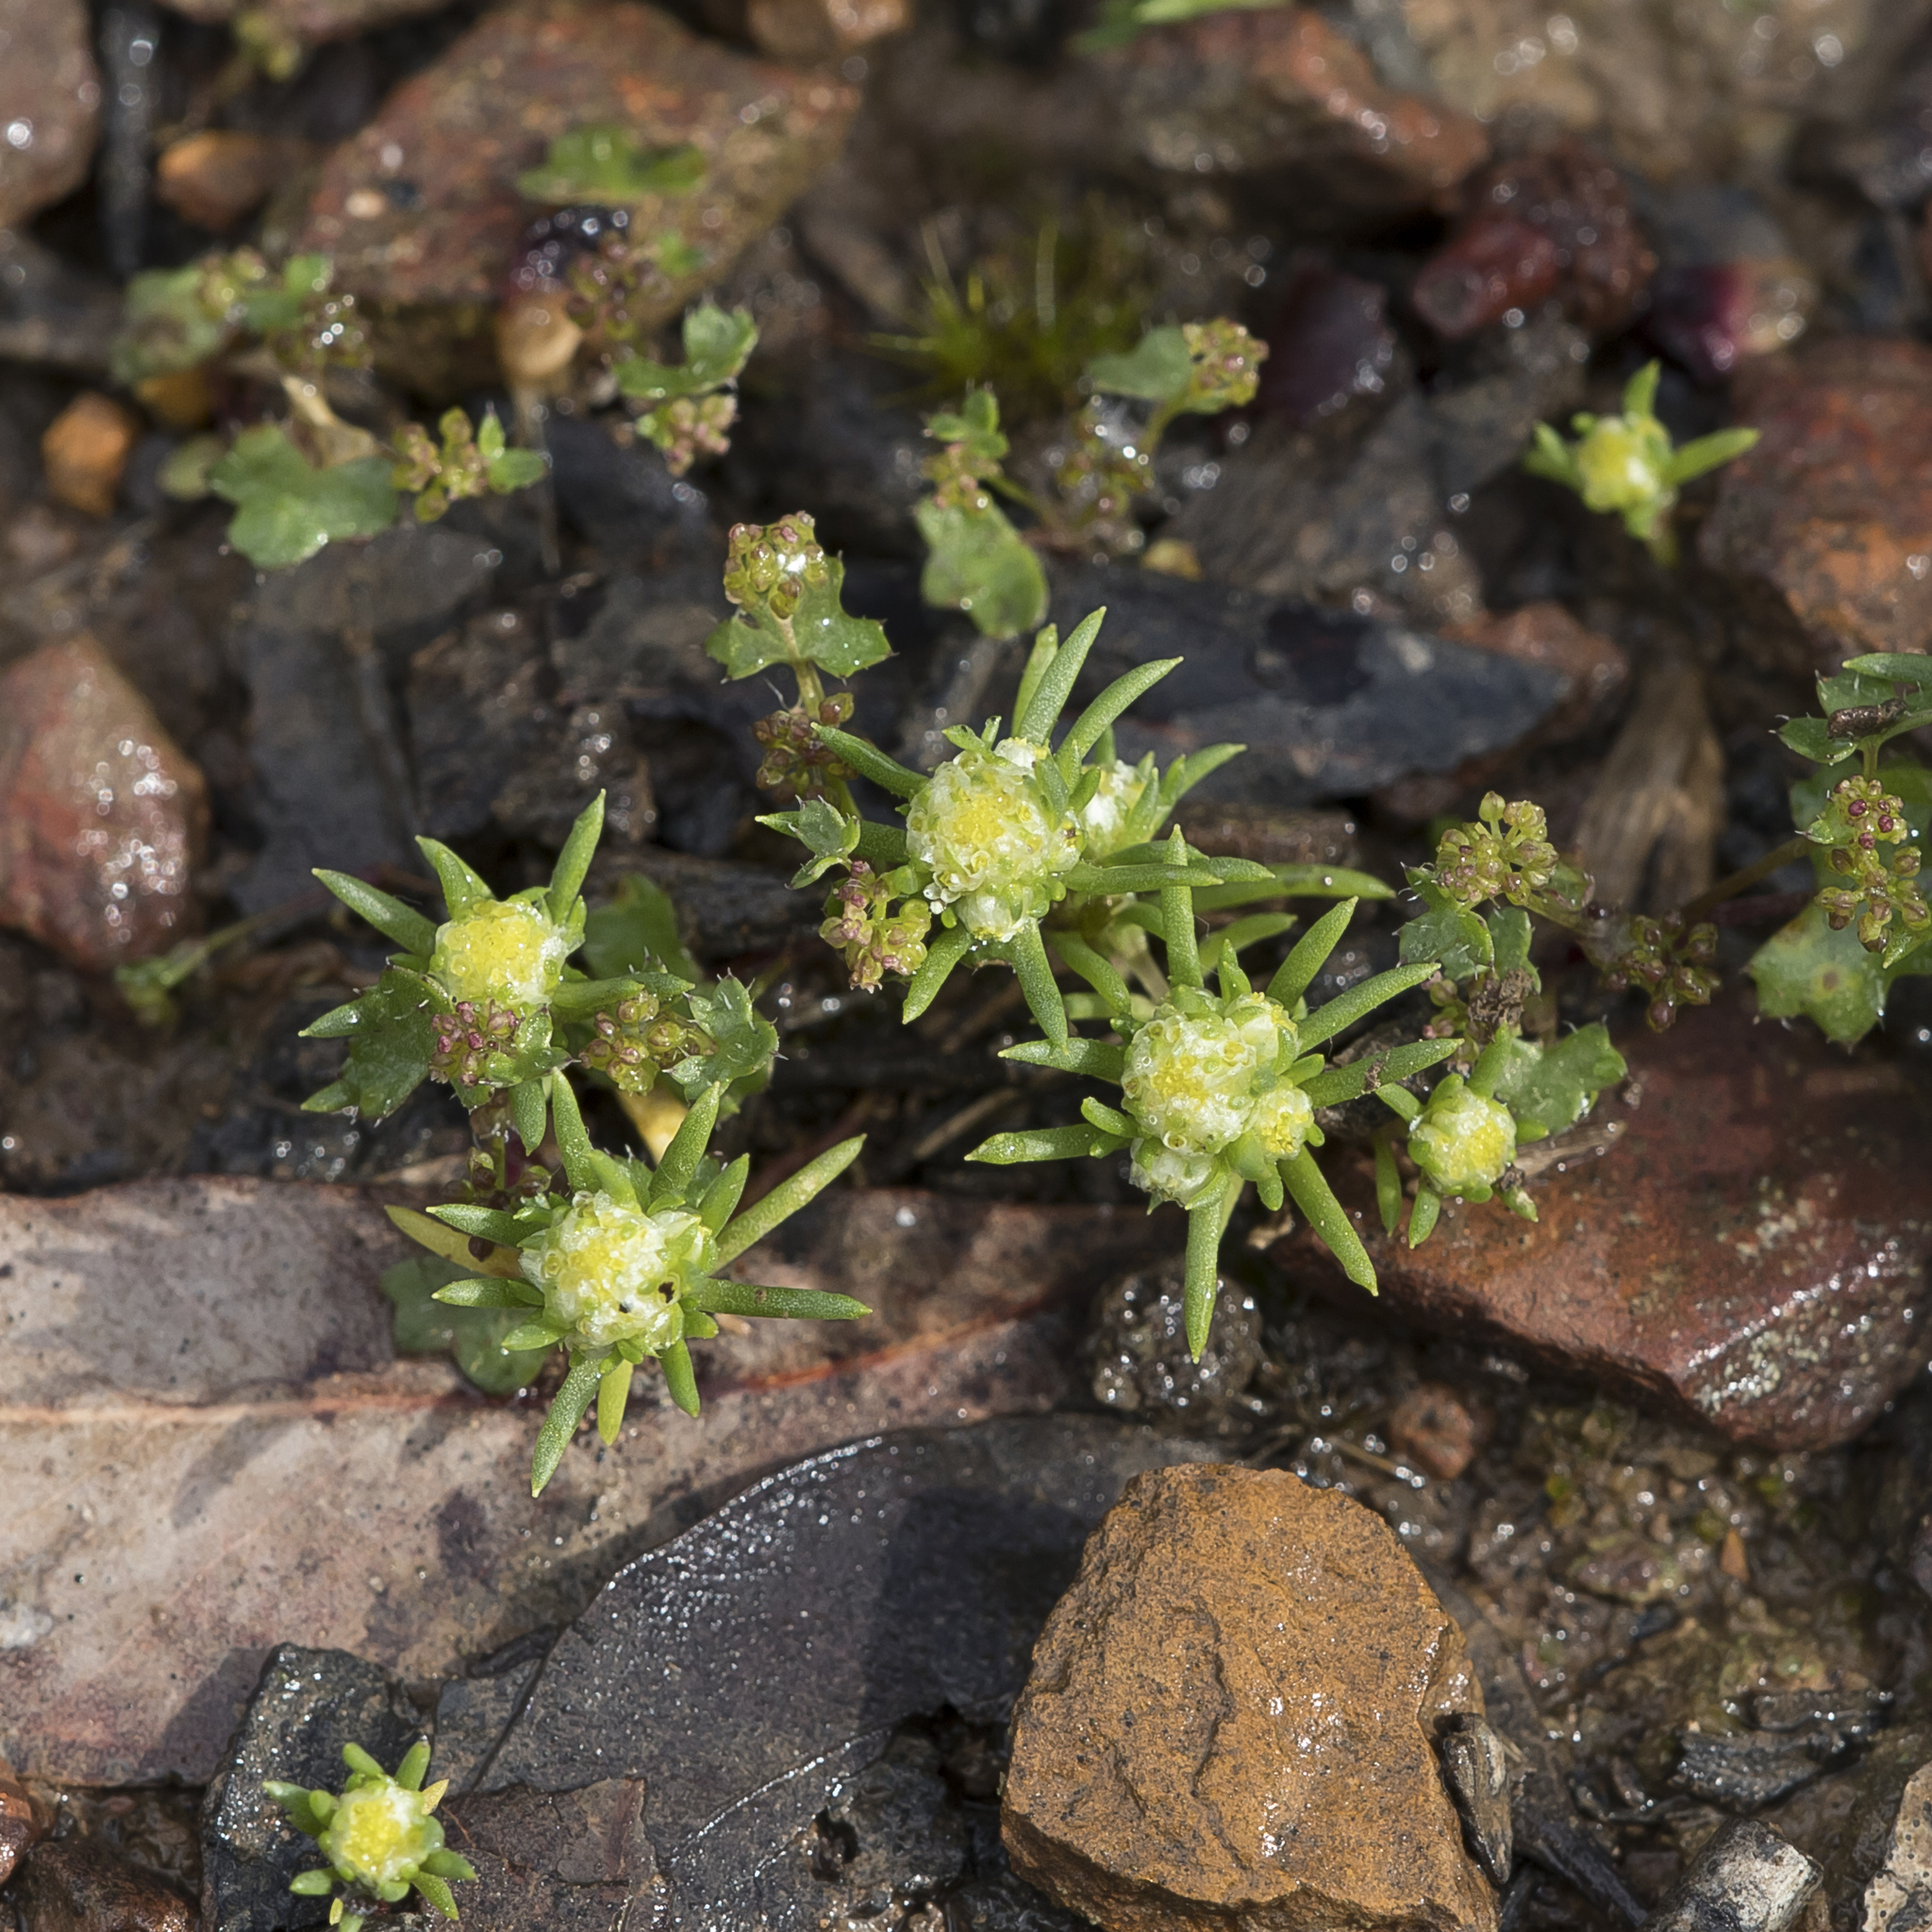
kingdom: Plantae
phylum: Tracheophyta
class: Magnoliopsida
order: Asterales
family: Asteraceae
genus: Siloxerus
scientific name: Siloxerus multiflorus
